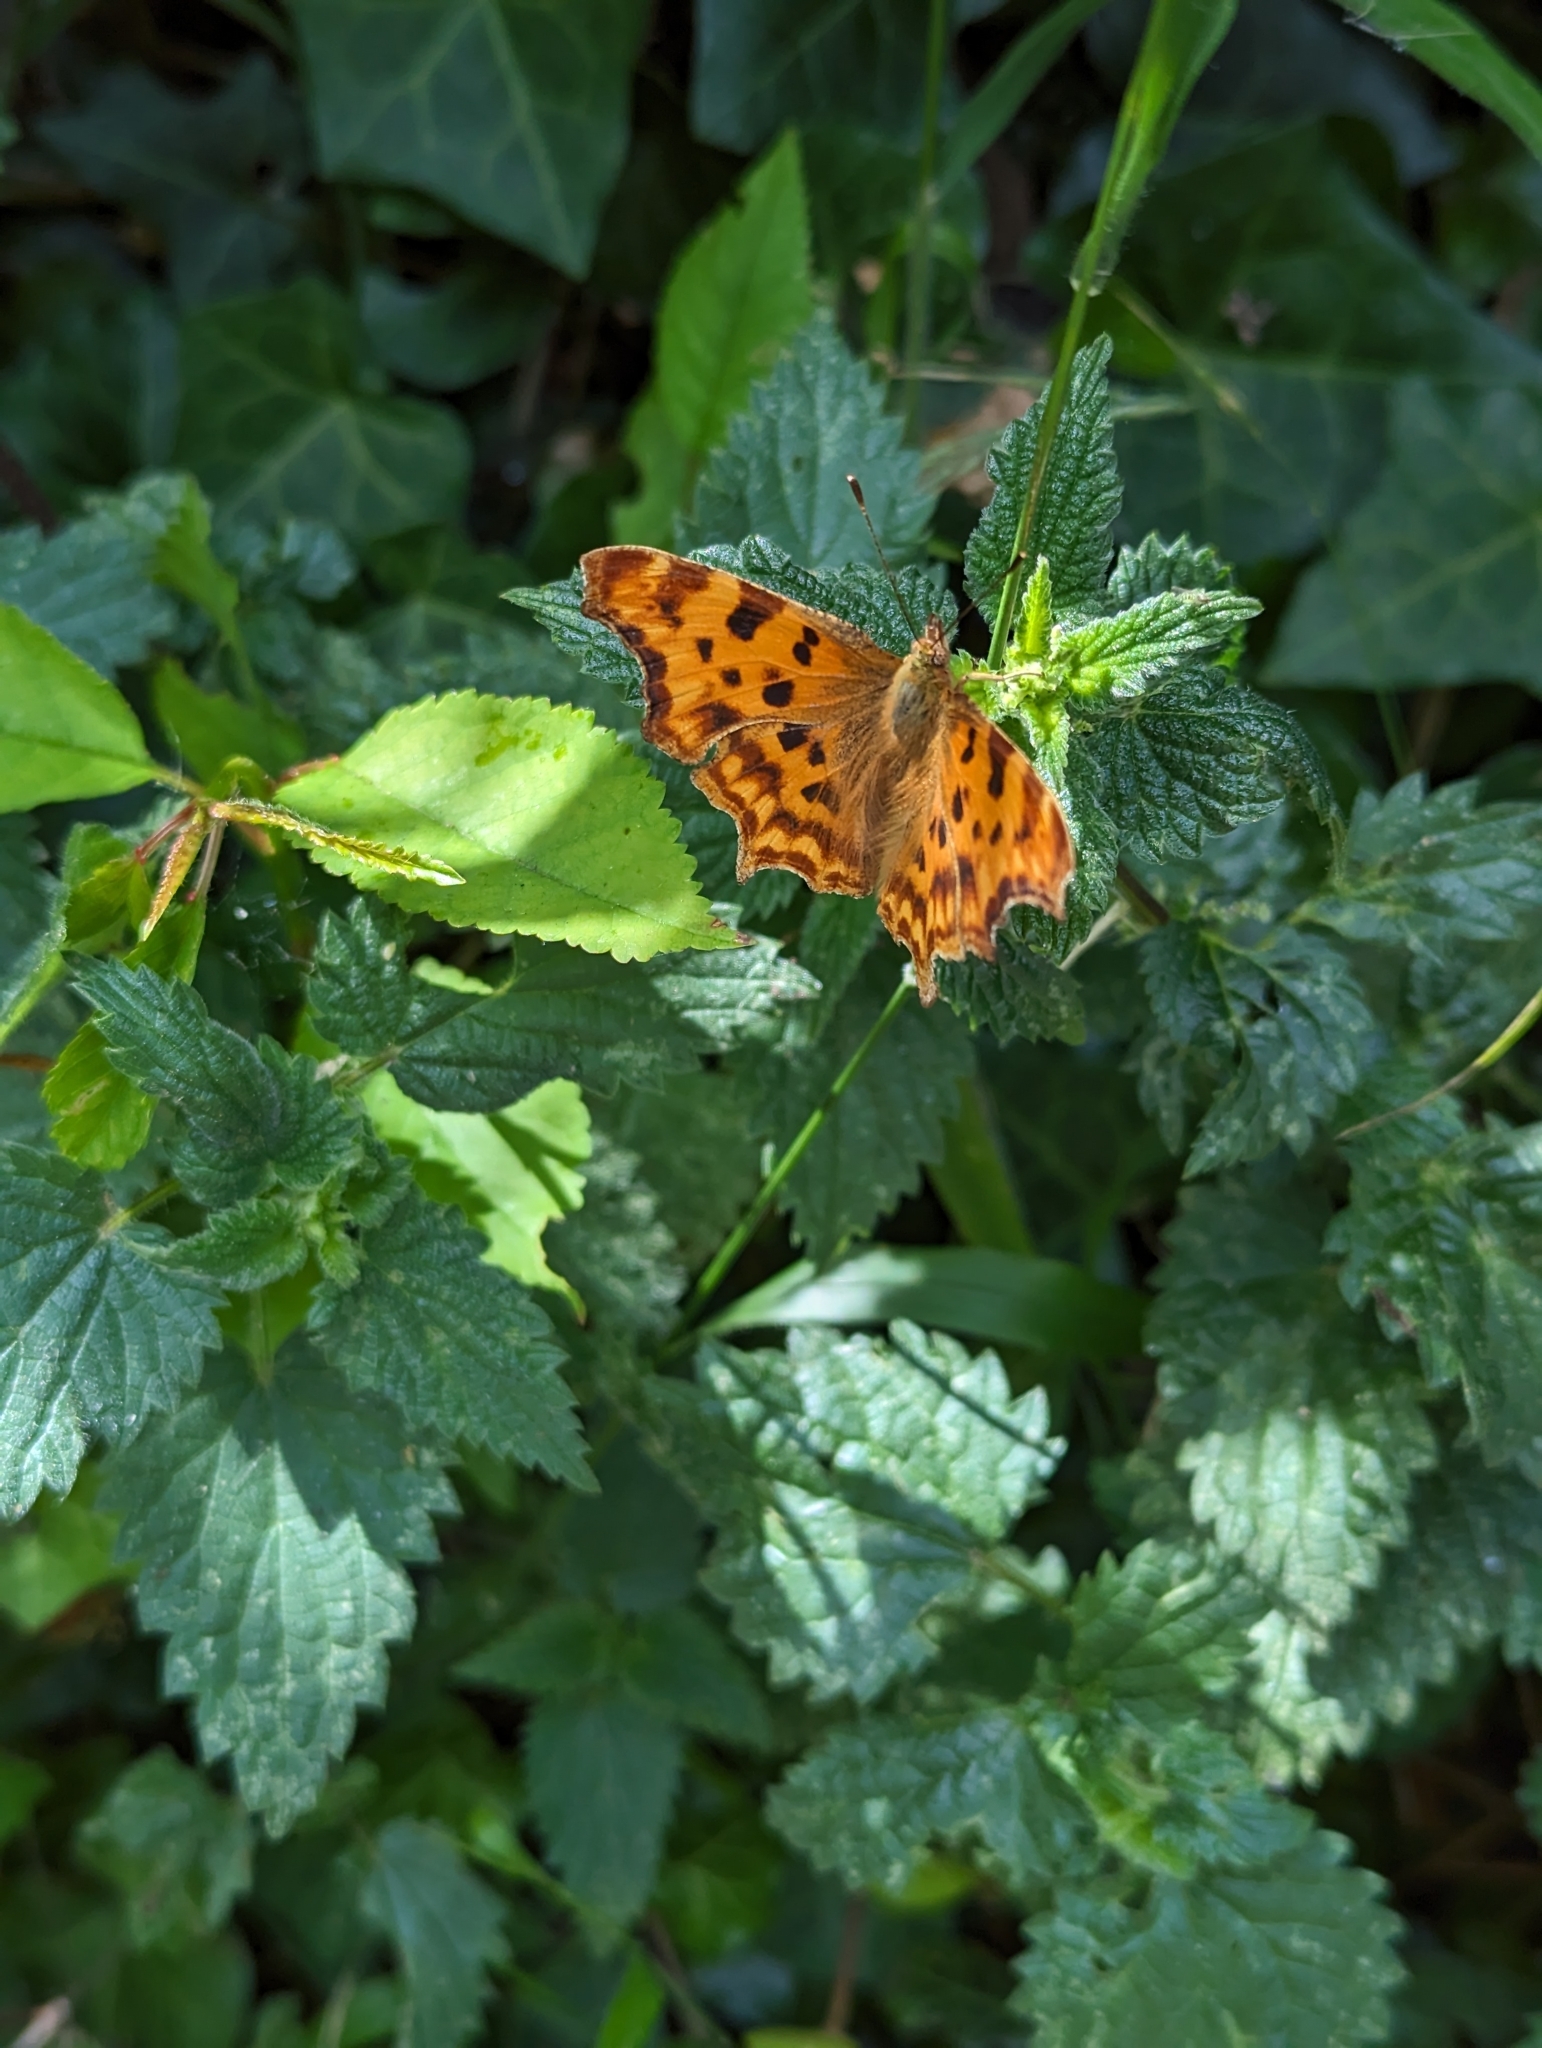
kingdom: Animalia
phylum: Arthropoda
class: Insecta
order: Lepidoptera
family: Nymphalidae
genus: Polygonia
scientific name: Polygonia c-album
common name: Comma
